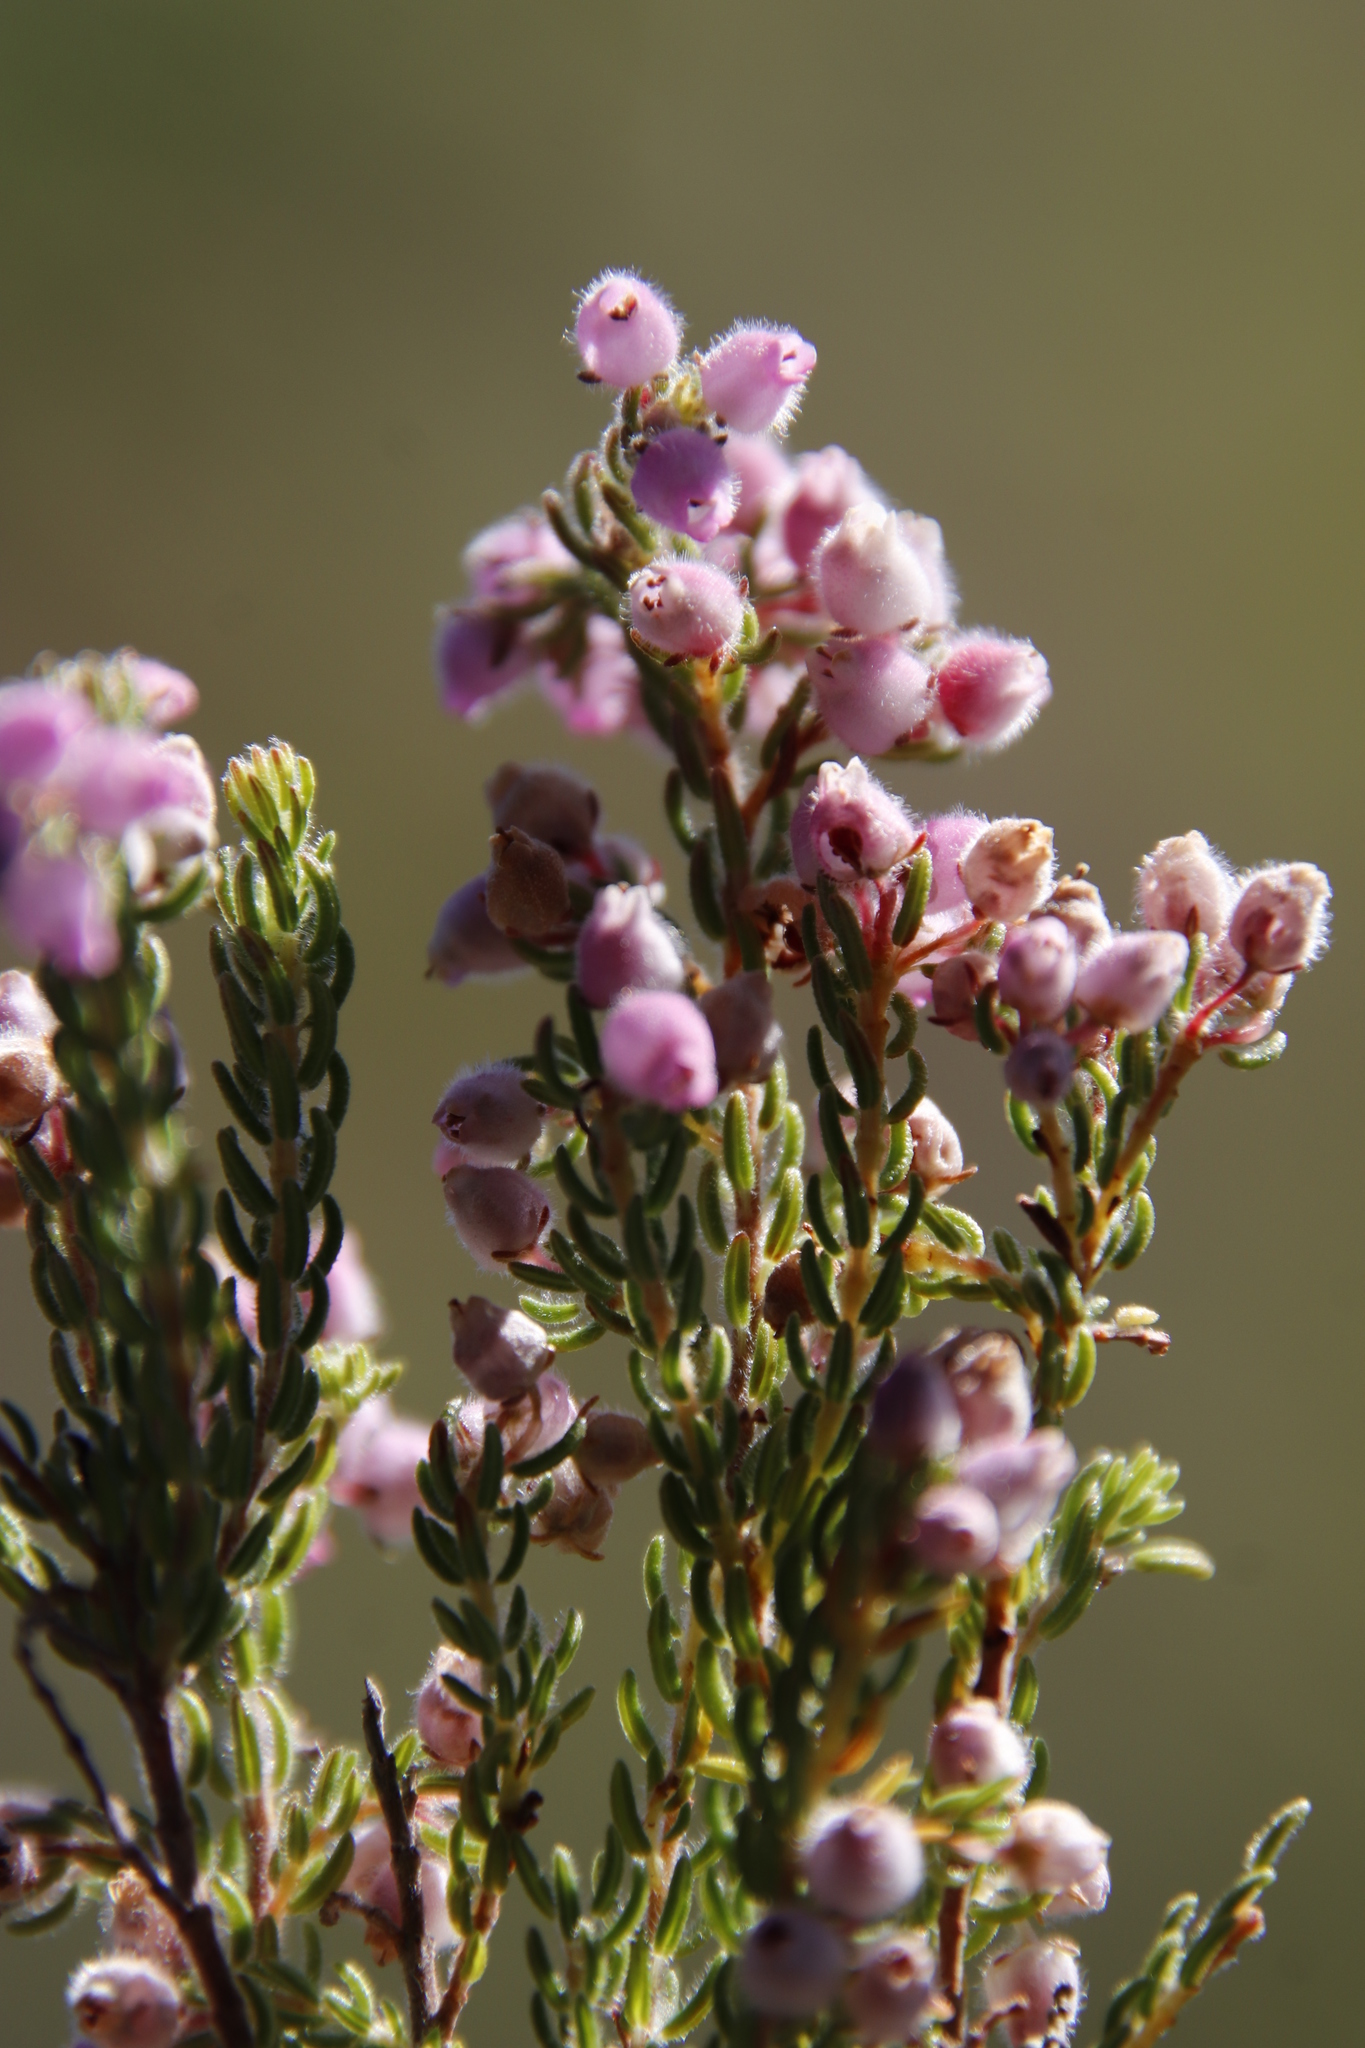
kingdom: Plantae
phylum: Tracheophyta
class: Magnoliopsida
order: Ericales
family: Ericaceae
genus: Erica
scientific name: Erica hirtiflora
